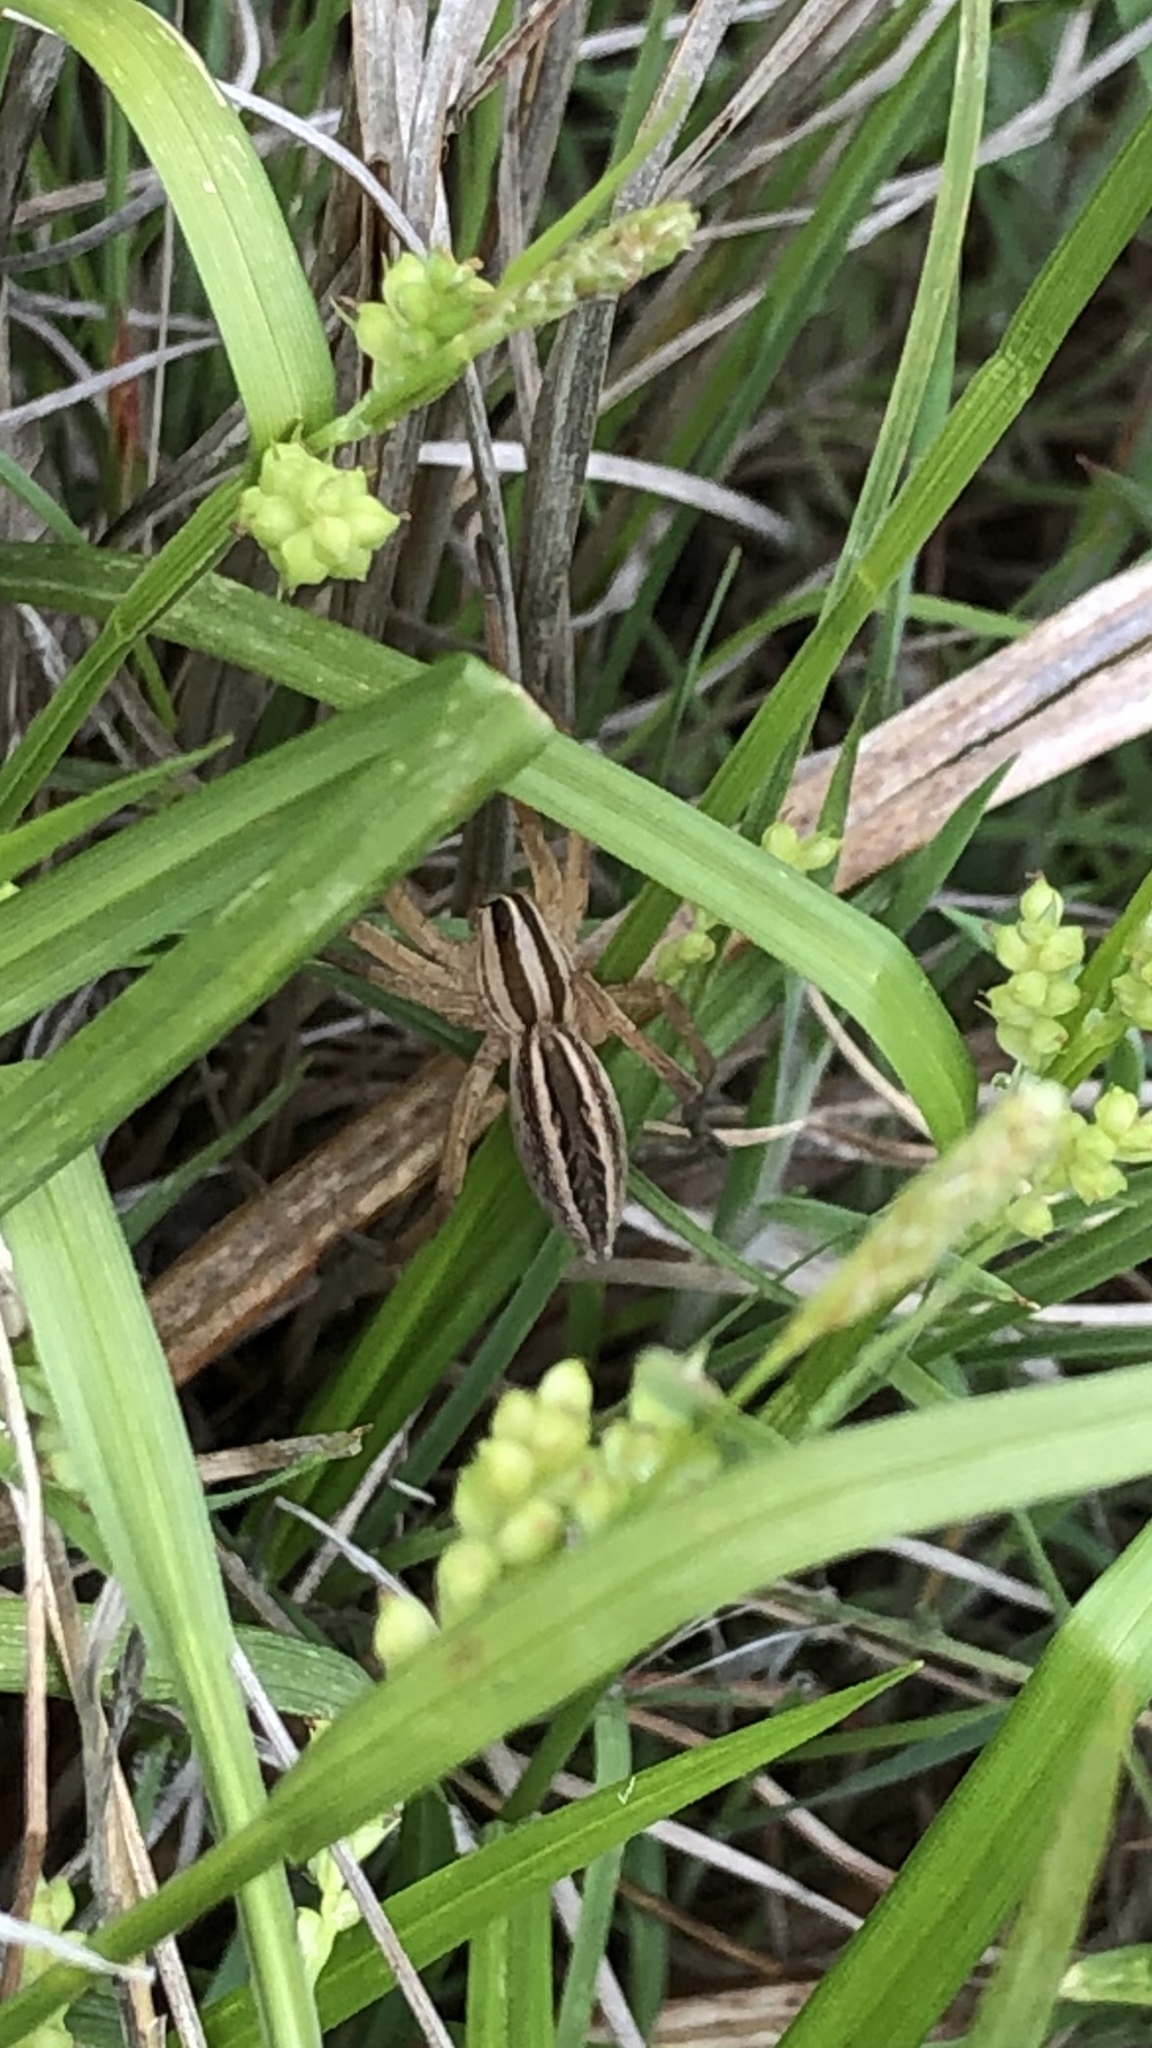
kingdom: Animalia
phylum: Arthropoda
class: Arachnida
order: Araneae
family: Lycosidae
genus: Rabidosa
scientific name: Rabidosa rabida
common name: Rabid wolf spider
